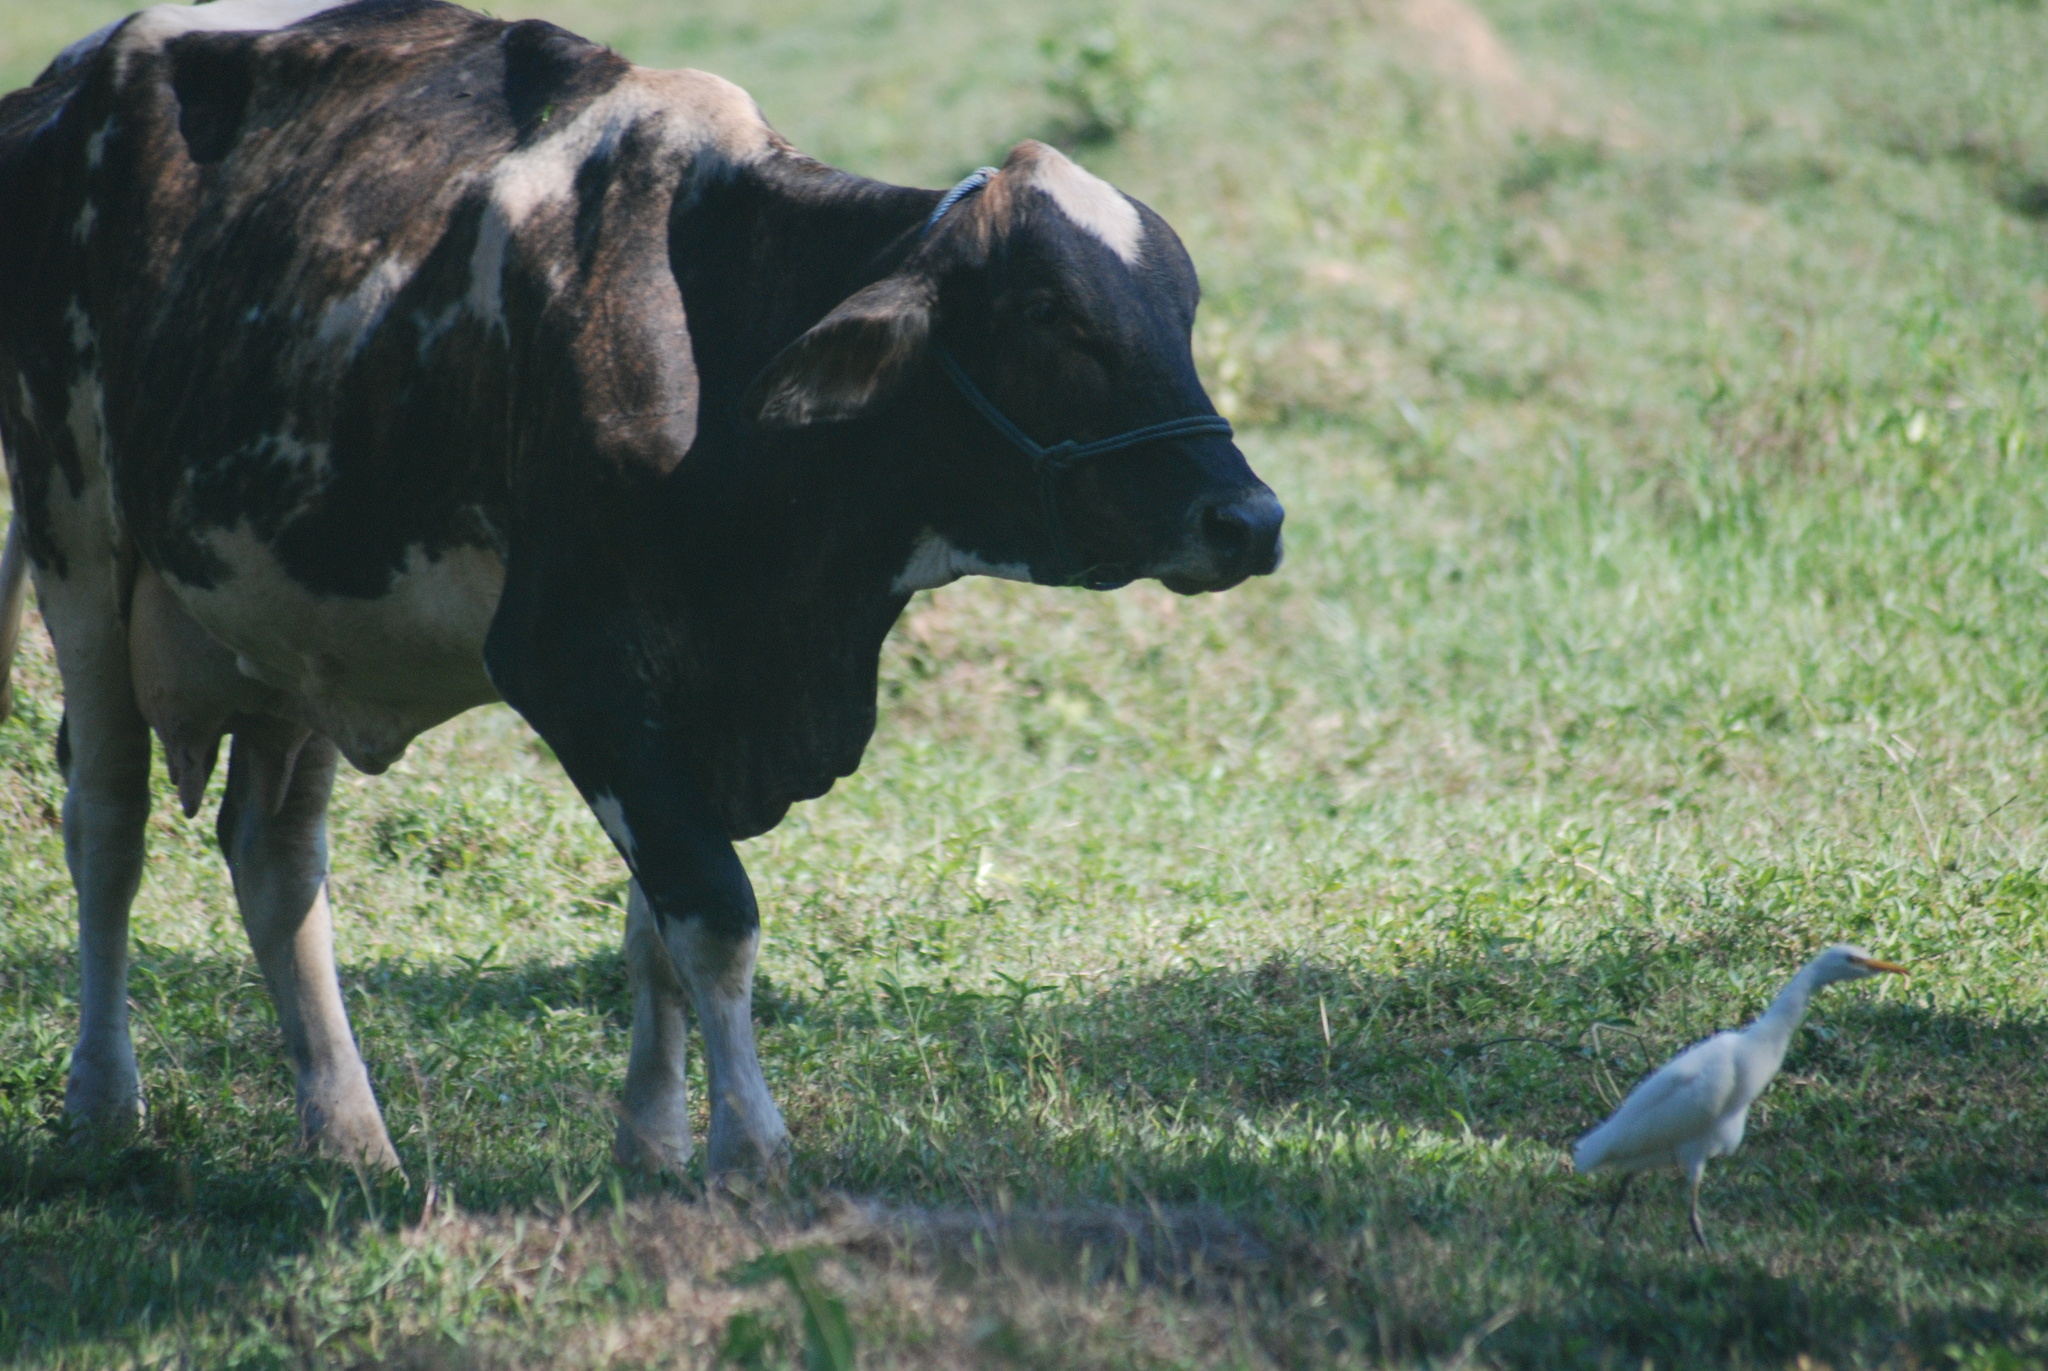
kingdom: Animalia
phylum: Chordata
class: Aves
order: Pelecaniformes
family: Ardeidae
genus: Bubulcus
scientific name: Bubulcus ibis
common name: Cattle egret
